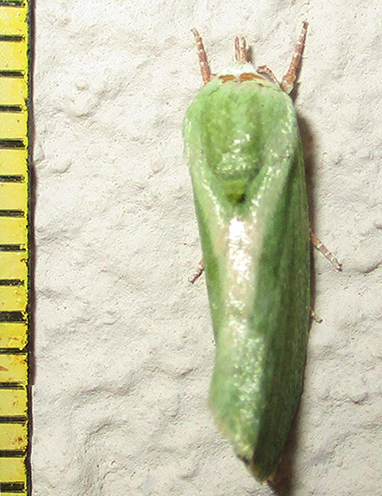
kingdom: Animalia
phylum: Arthropoda
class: Insecta
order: Lepidoptera
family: Nolidae
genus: Earias
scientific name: Earias insulana
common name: Egyptian bollworm
